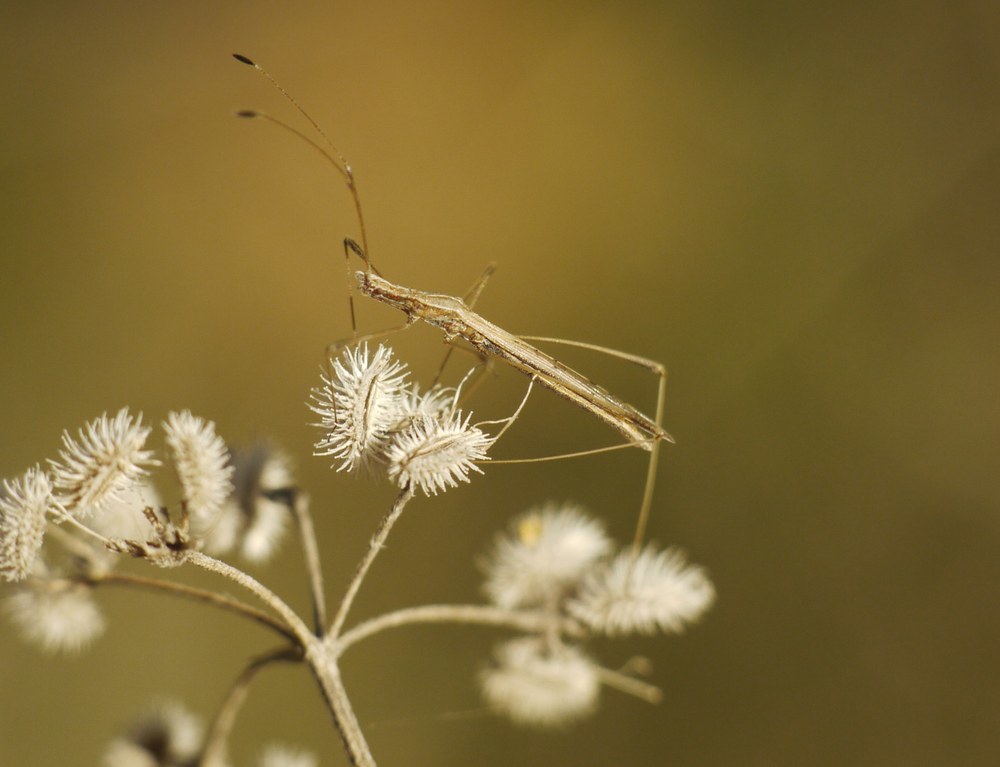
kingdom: Animalia
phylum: Arthropoda
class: Insecta
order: Hemiptera
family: Berytidae
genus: Neides
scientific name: Neides tipularius
